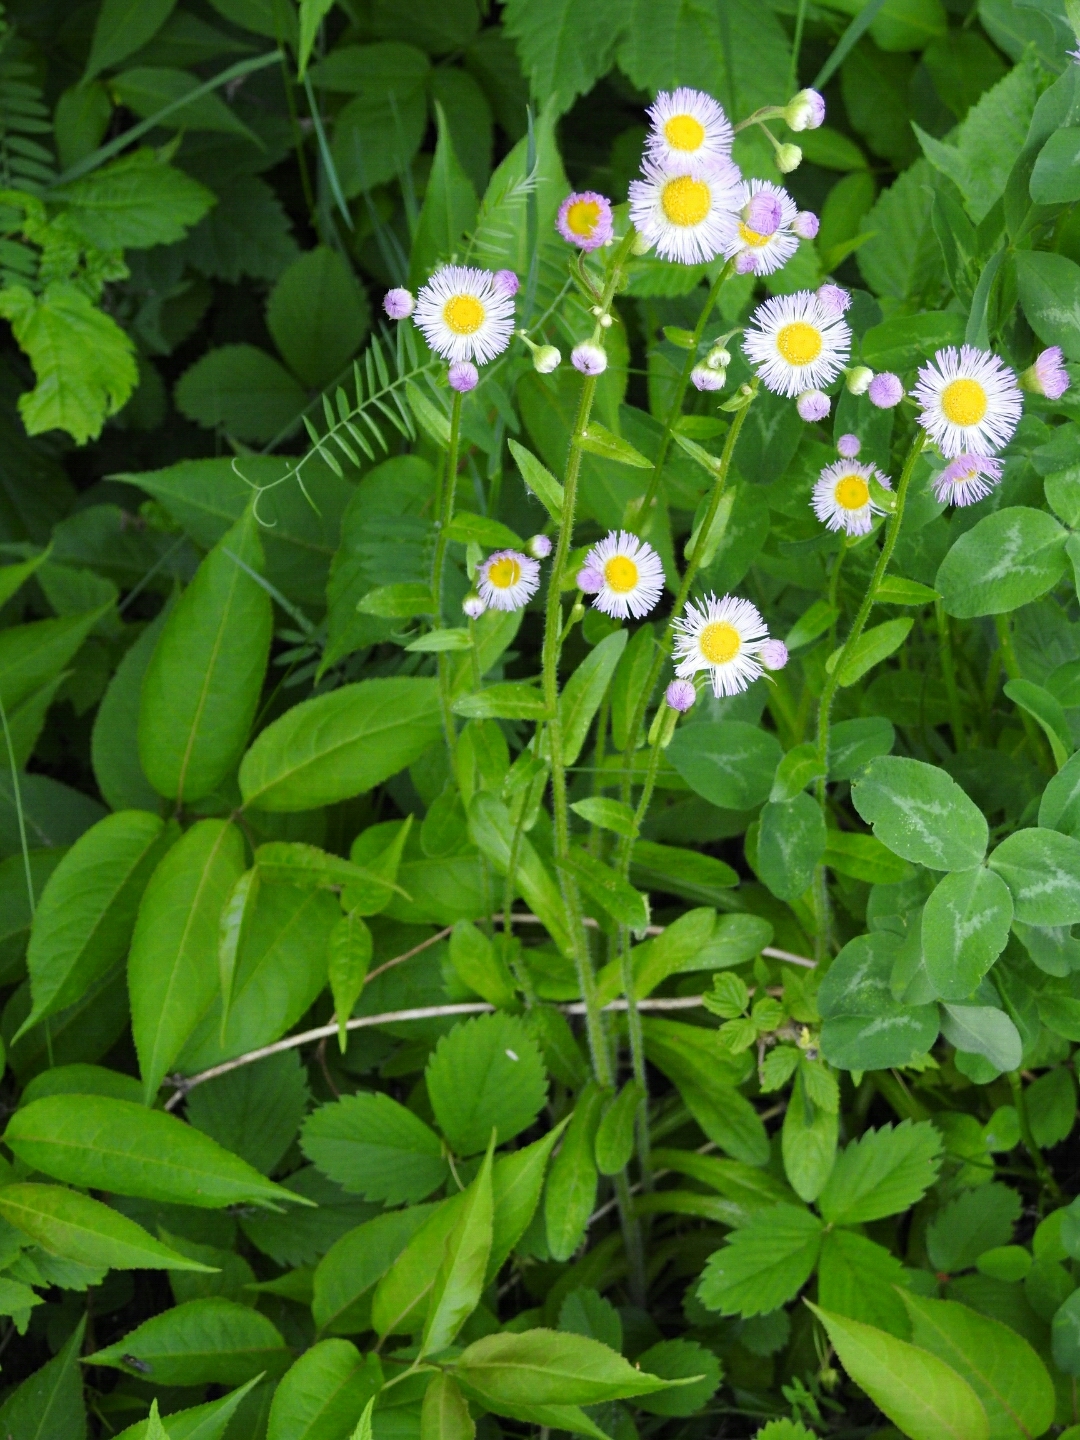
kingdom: Plantae
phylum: Tracheophyta
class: Magnoliopsida
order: Asterales
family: Asteraceae
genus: Erigeron
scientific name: Erigeron philadelphicus
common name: Robin's-plantain
